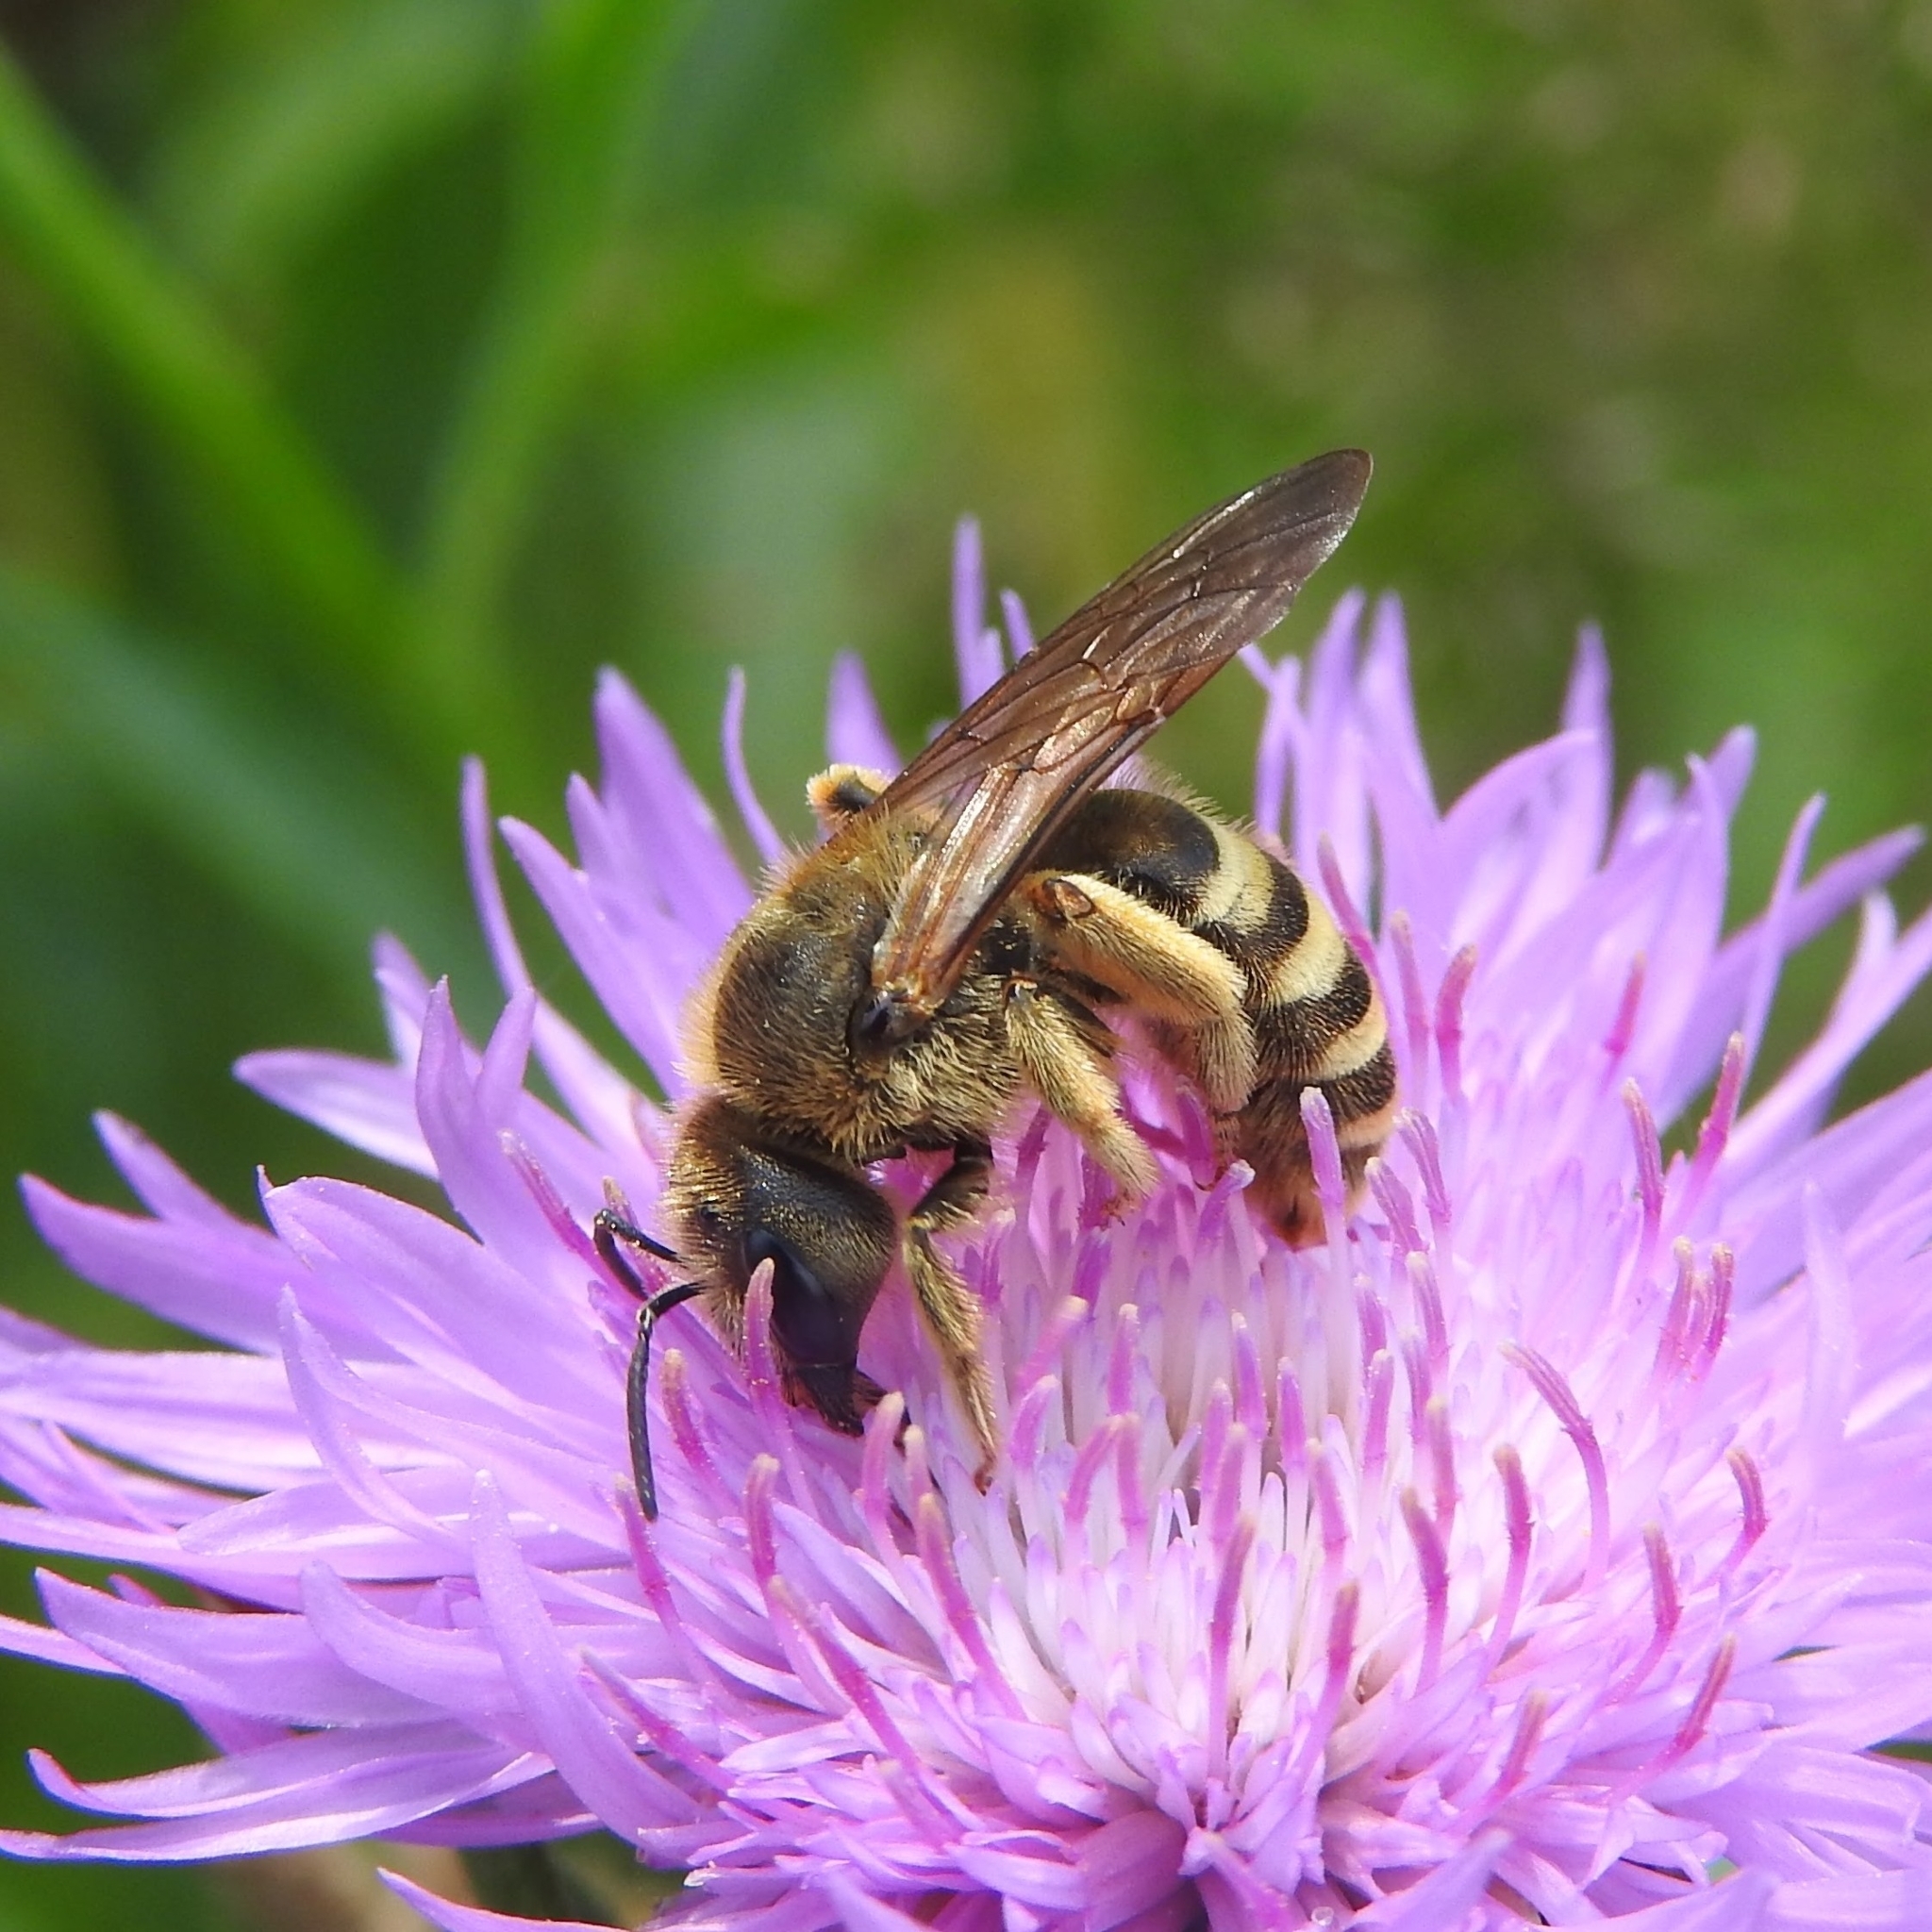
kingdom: Animalia
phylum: Arthropoda
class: Insecta
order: Hymenoptera
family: Halictidae
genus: Halictus
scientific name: Halictus scabiosae
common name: Great banded furrow bee
